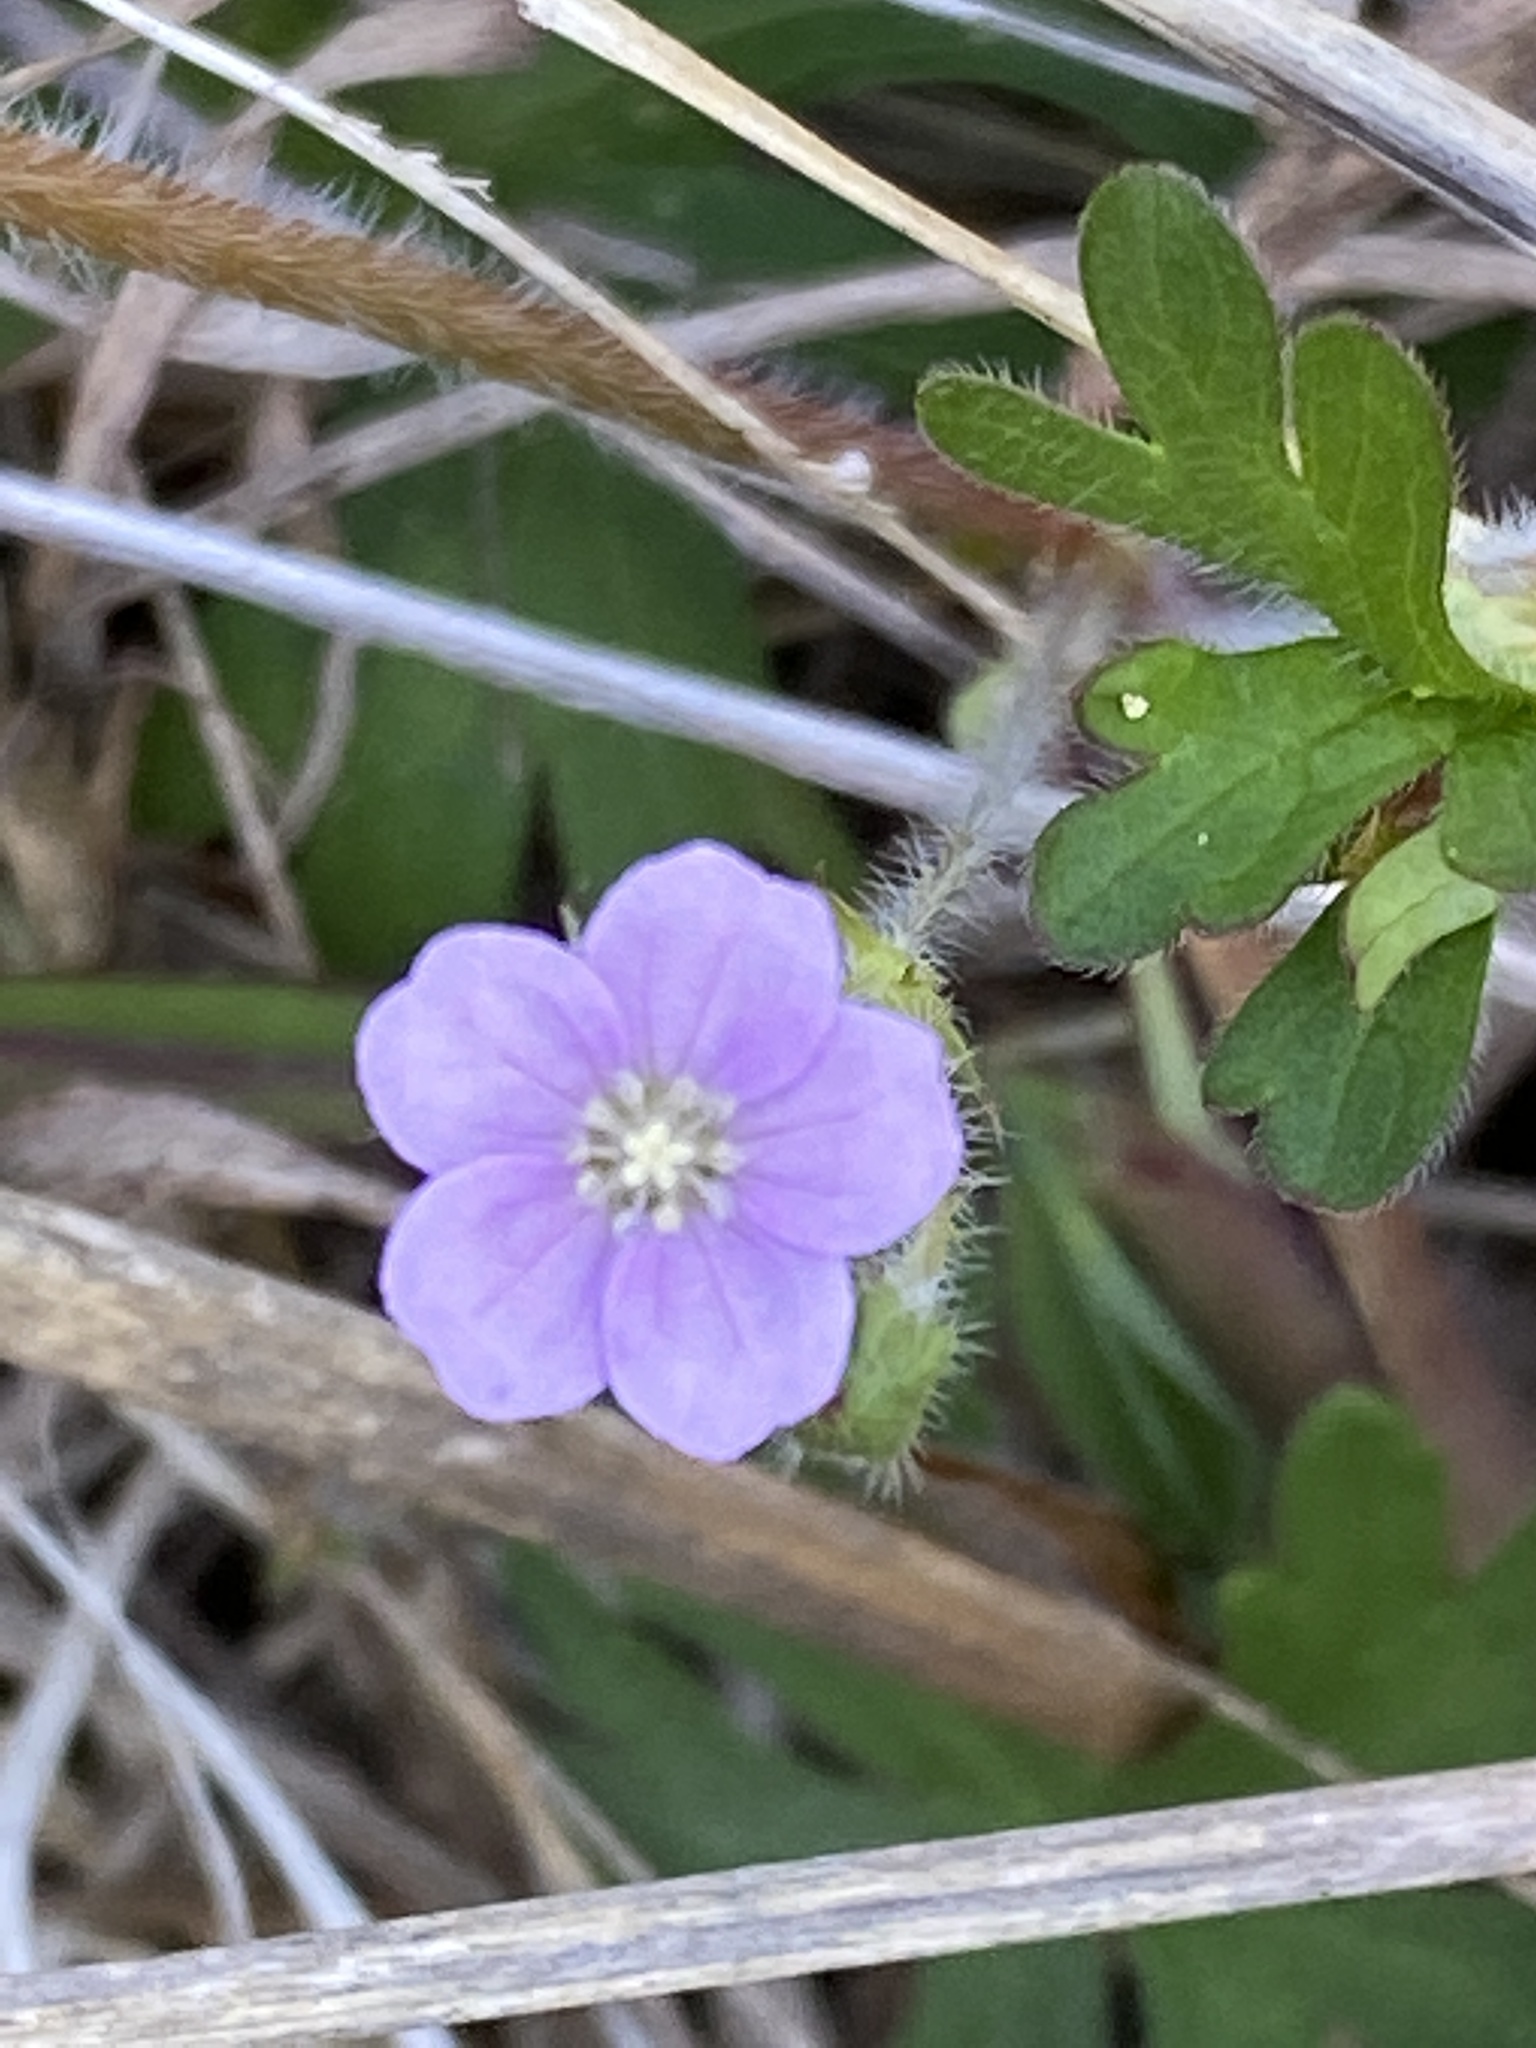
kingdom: Plantae
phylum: Tracheophyta
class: Magnoliopsida
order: Geraniales
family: Geraniaceae
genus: Geranium
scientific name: Geranium solanderi
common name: Solander's geranium
